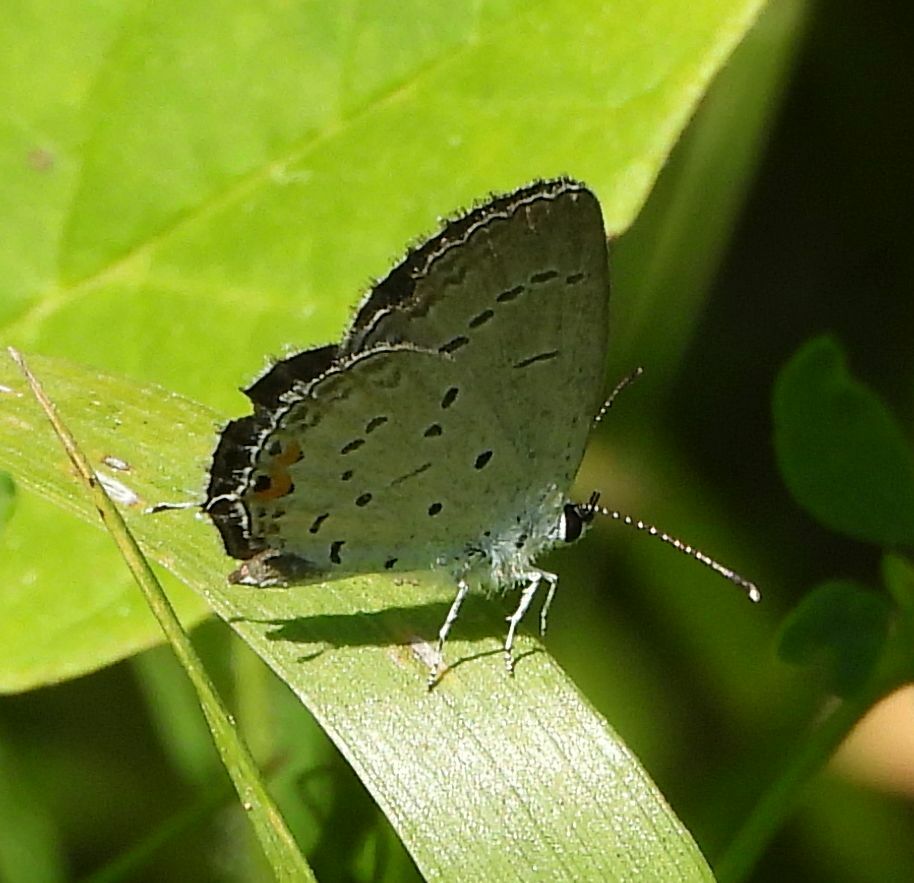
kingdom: Animalia
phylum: Arthropoda
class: Insecta
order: Lepidoptera
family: Lycaenidae
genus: Elkalyce
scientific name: Elkalyce comyntas
